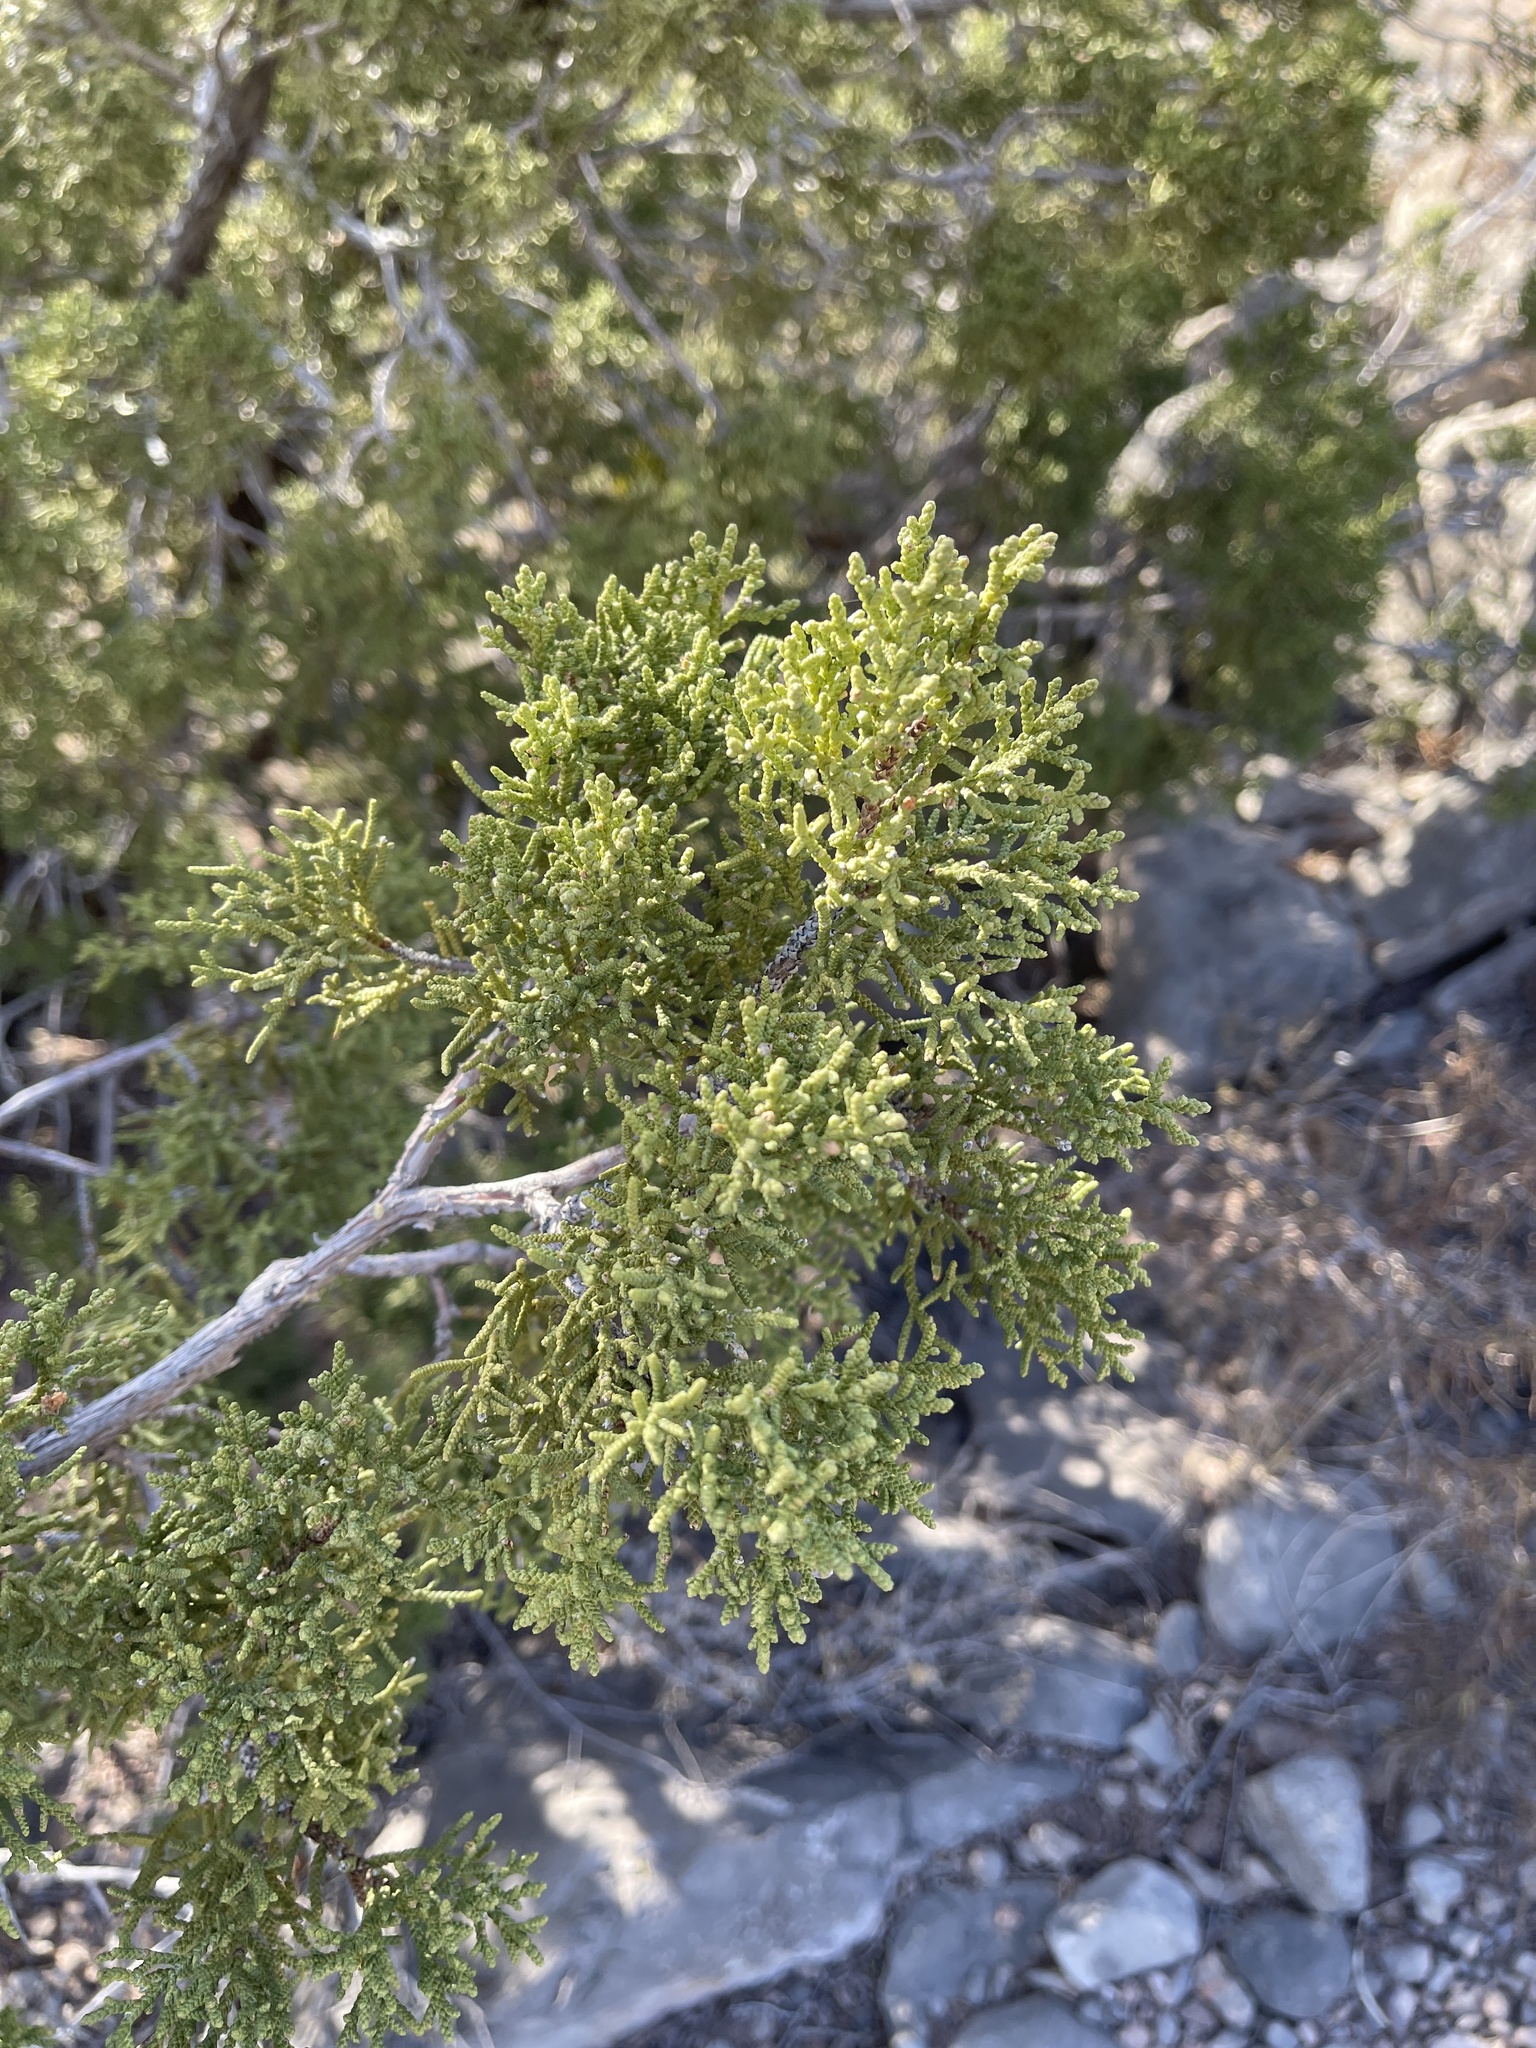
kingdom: Plantae
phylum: Tracheophyta
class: Pinopsida
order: Pinales
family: Cupressaceae
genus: Juniperus
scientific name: Juniperus monosperma
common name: One-seed juniper
